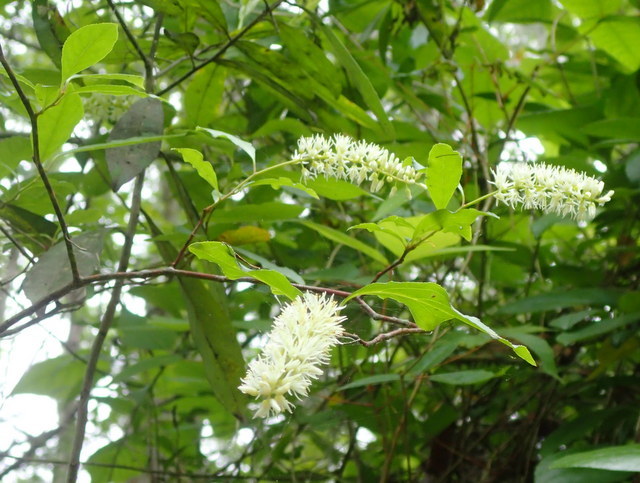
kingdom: Plantae
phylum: Tracheophyta
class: Magnoliopsida
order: Saxifragales
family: Iteaceae
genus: Itea
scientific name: Itea virginica
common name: Sweetspire
